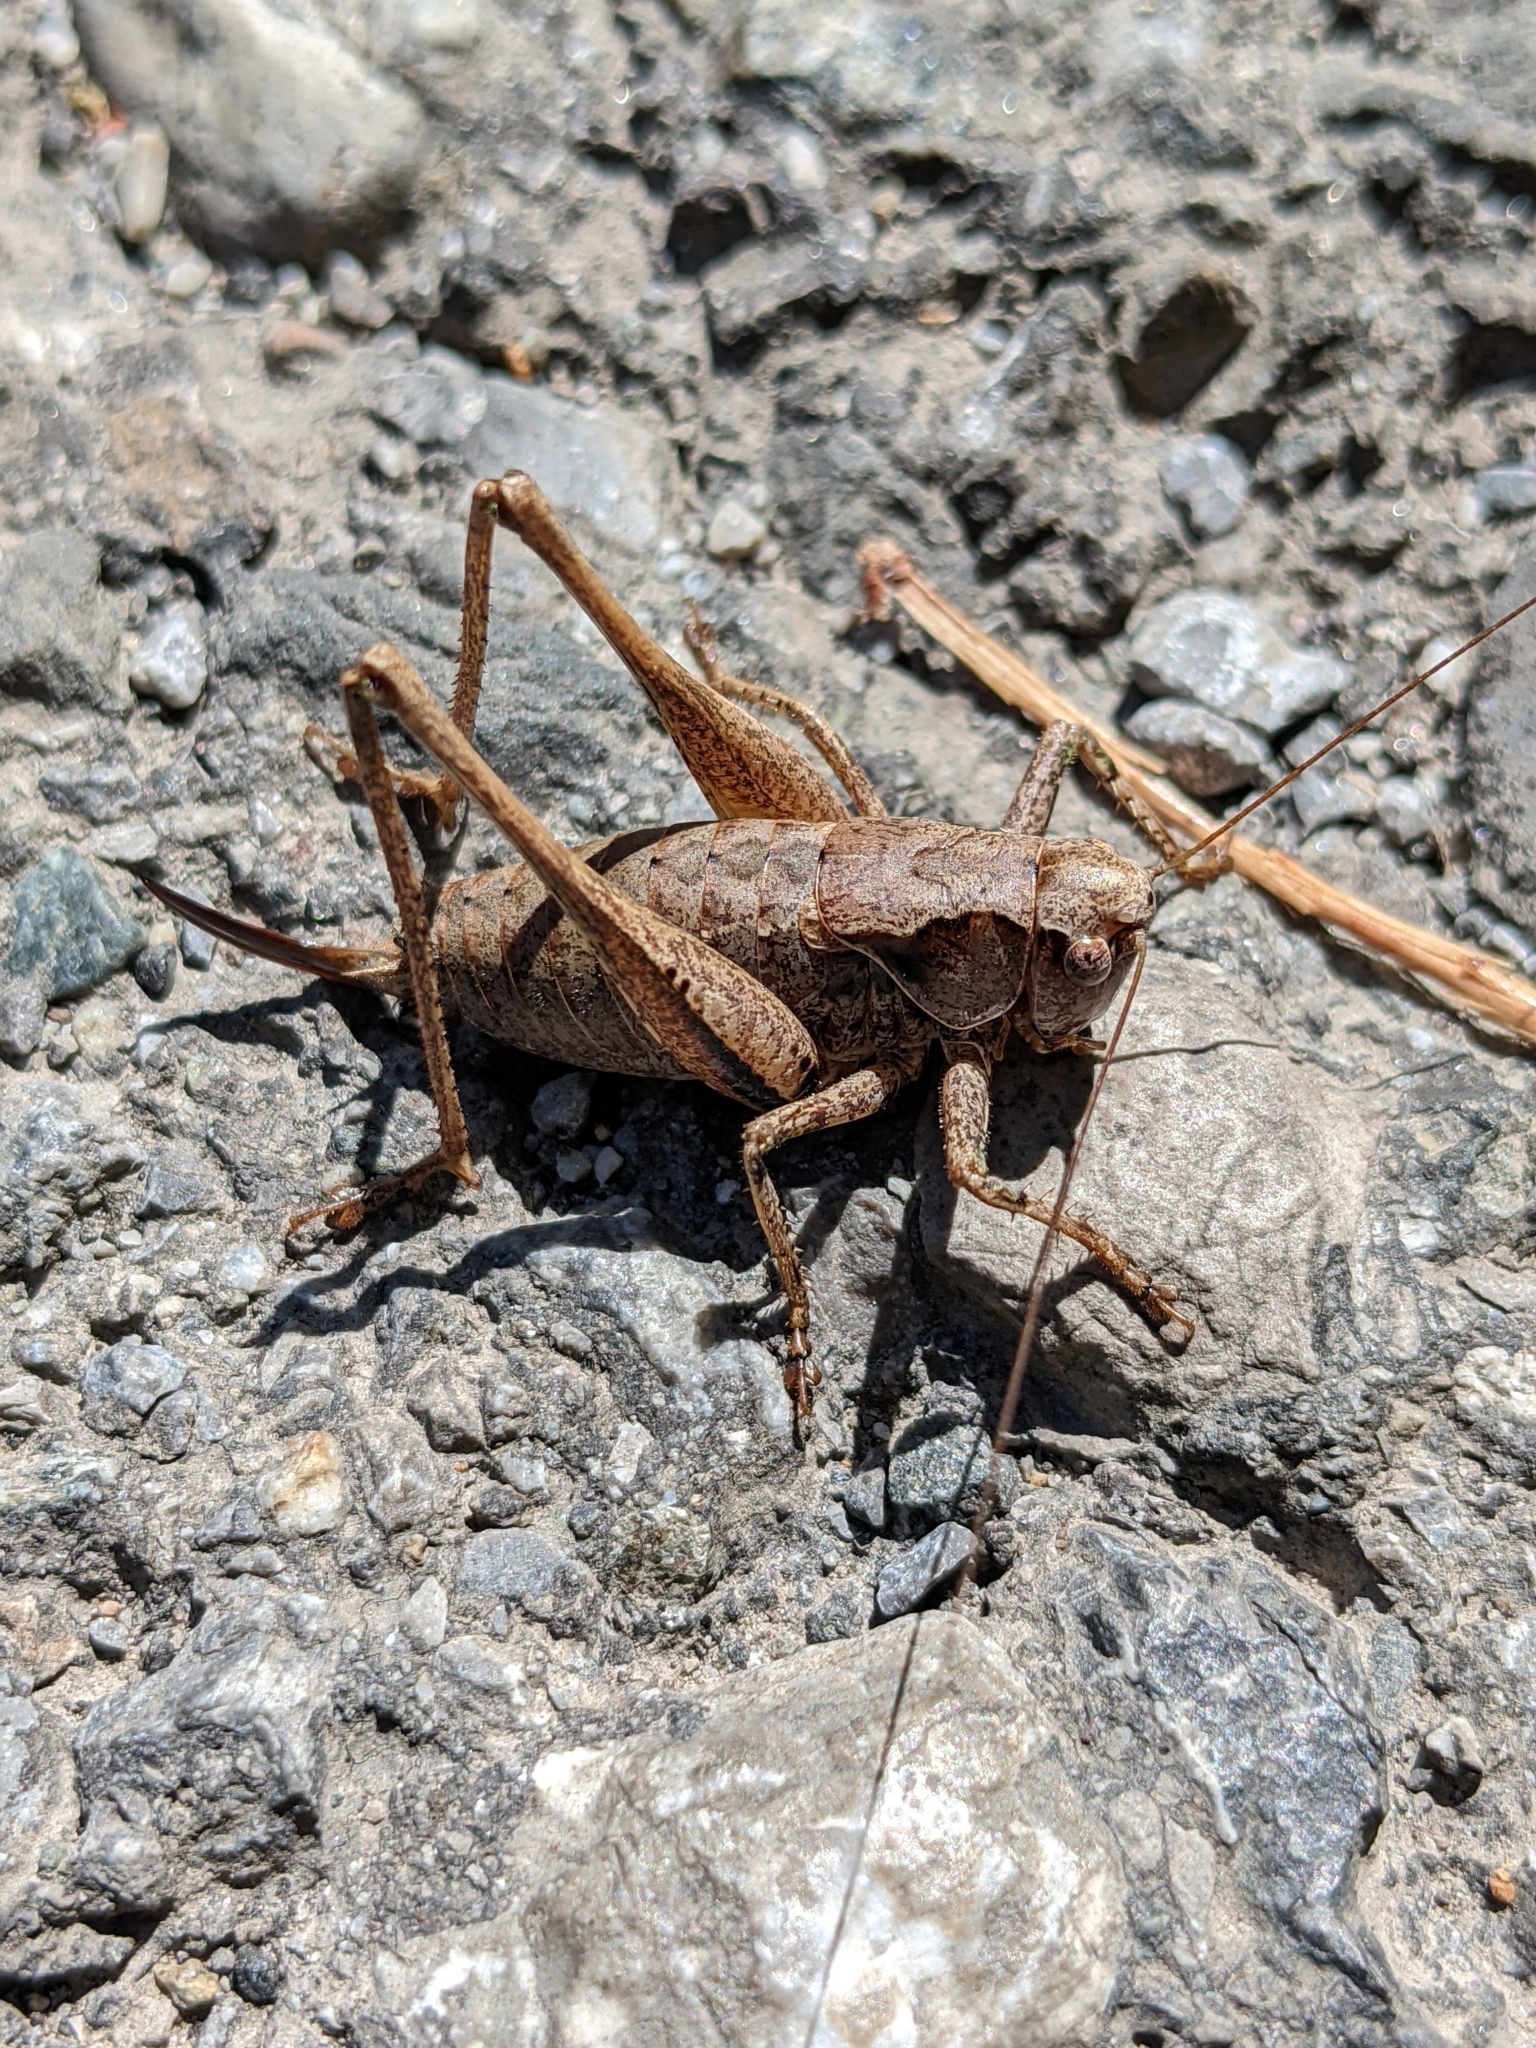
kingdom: Animalia
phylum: Arthropoda
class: Insecta
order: Orthoptera
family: Tettigoniidae
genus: Pholidoptera
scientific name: Pholidoptera griseoaptera
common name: Dark bush-cricket
